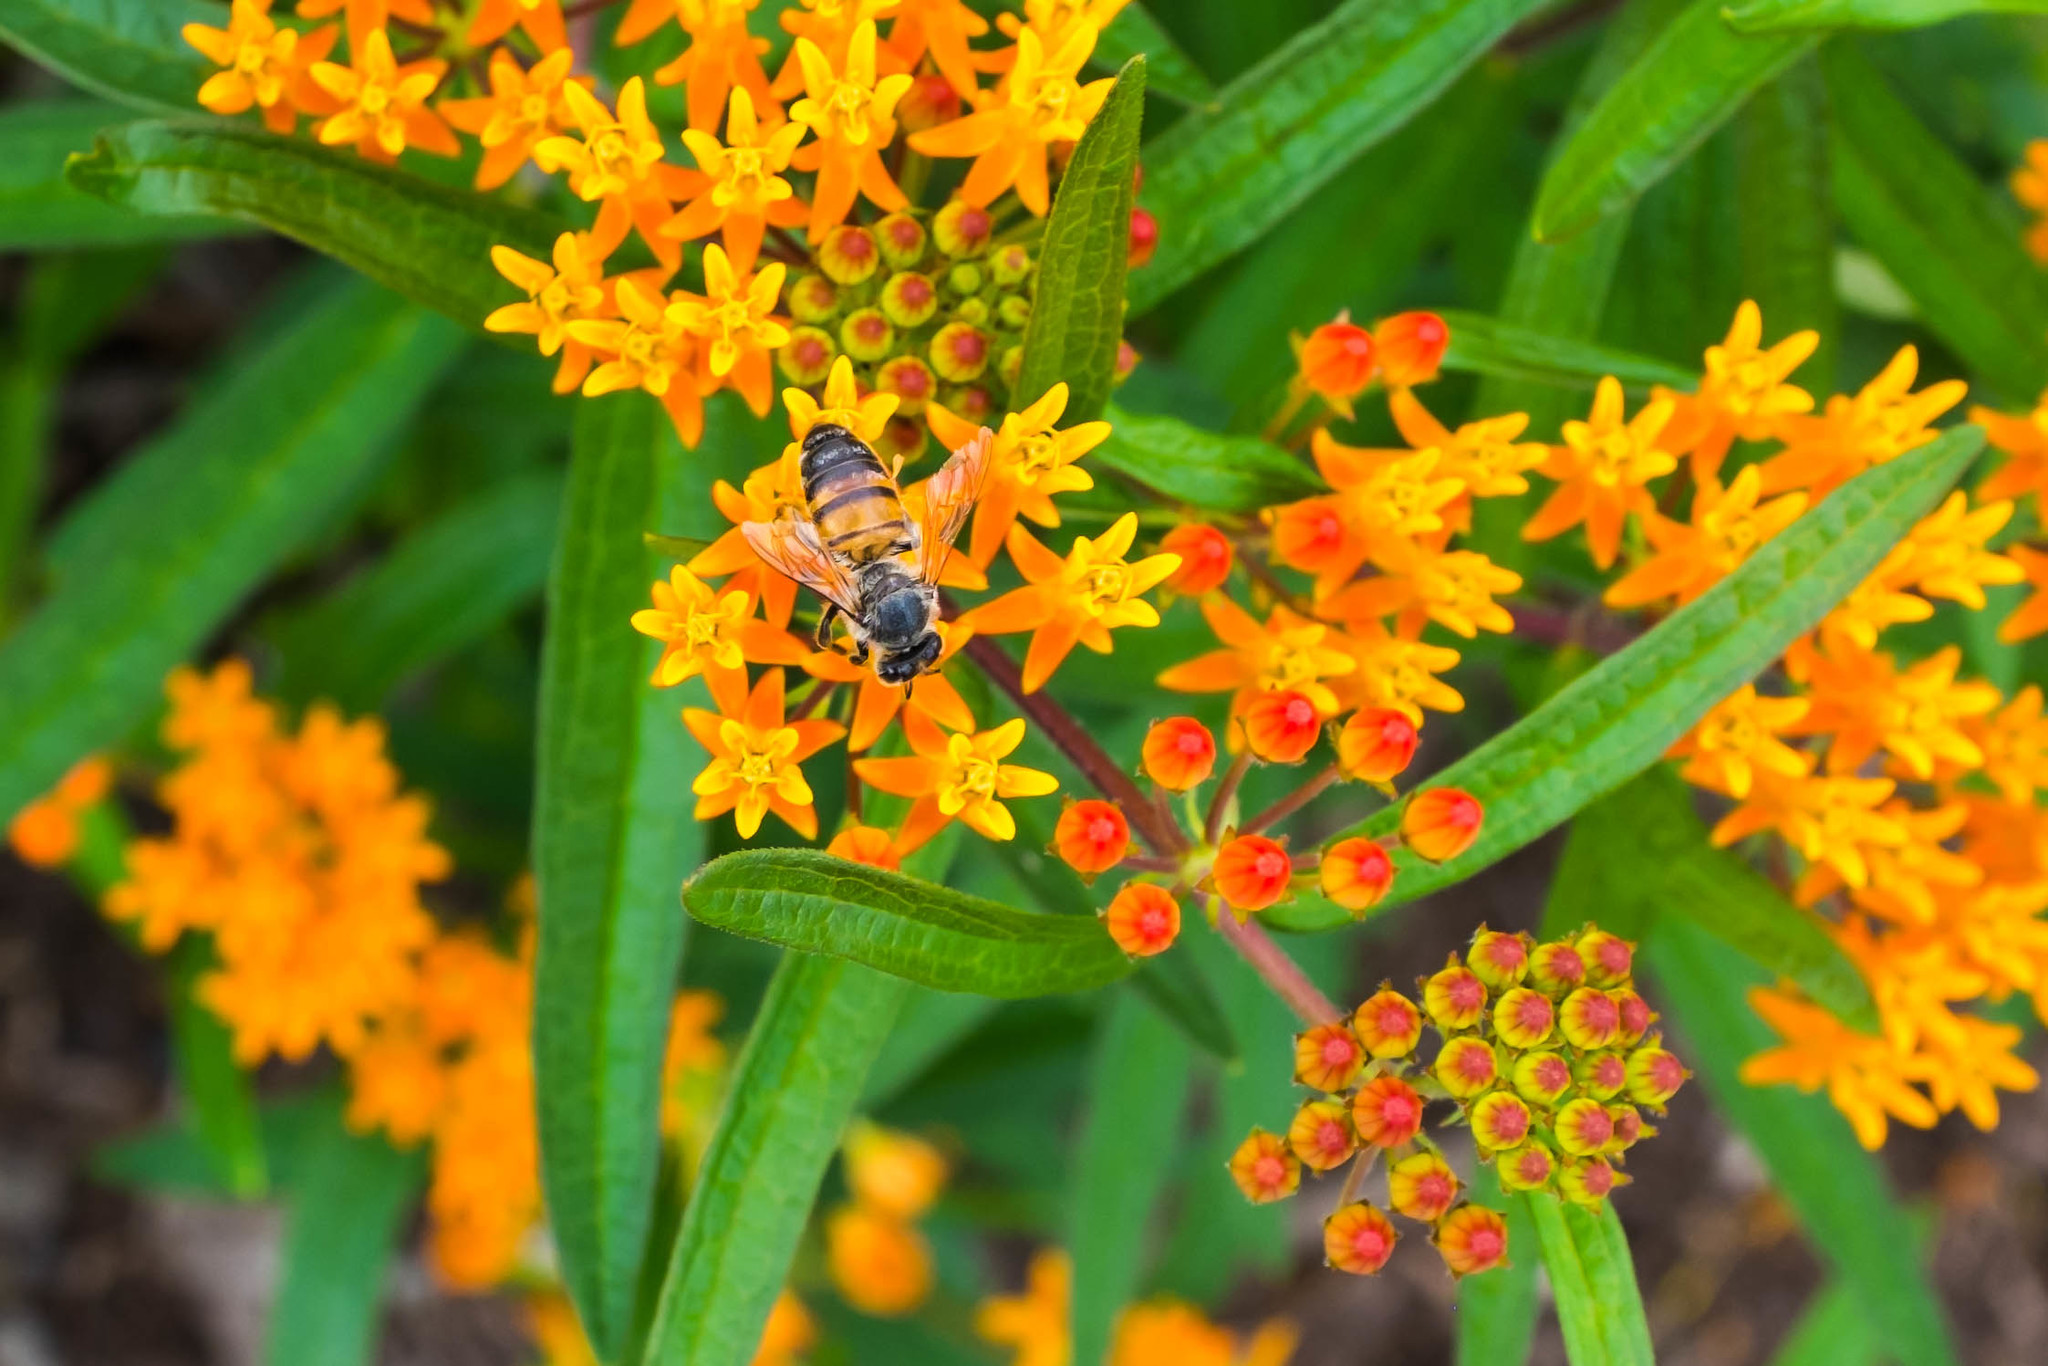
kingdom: Animalia
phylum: Arthropoda
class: Insecta
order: Hymenoptera
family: Apidae
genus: Apis
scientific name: Apis mellifera
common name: Honey bee
